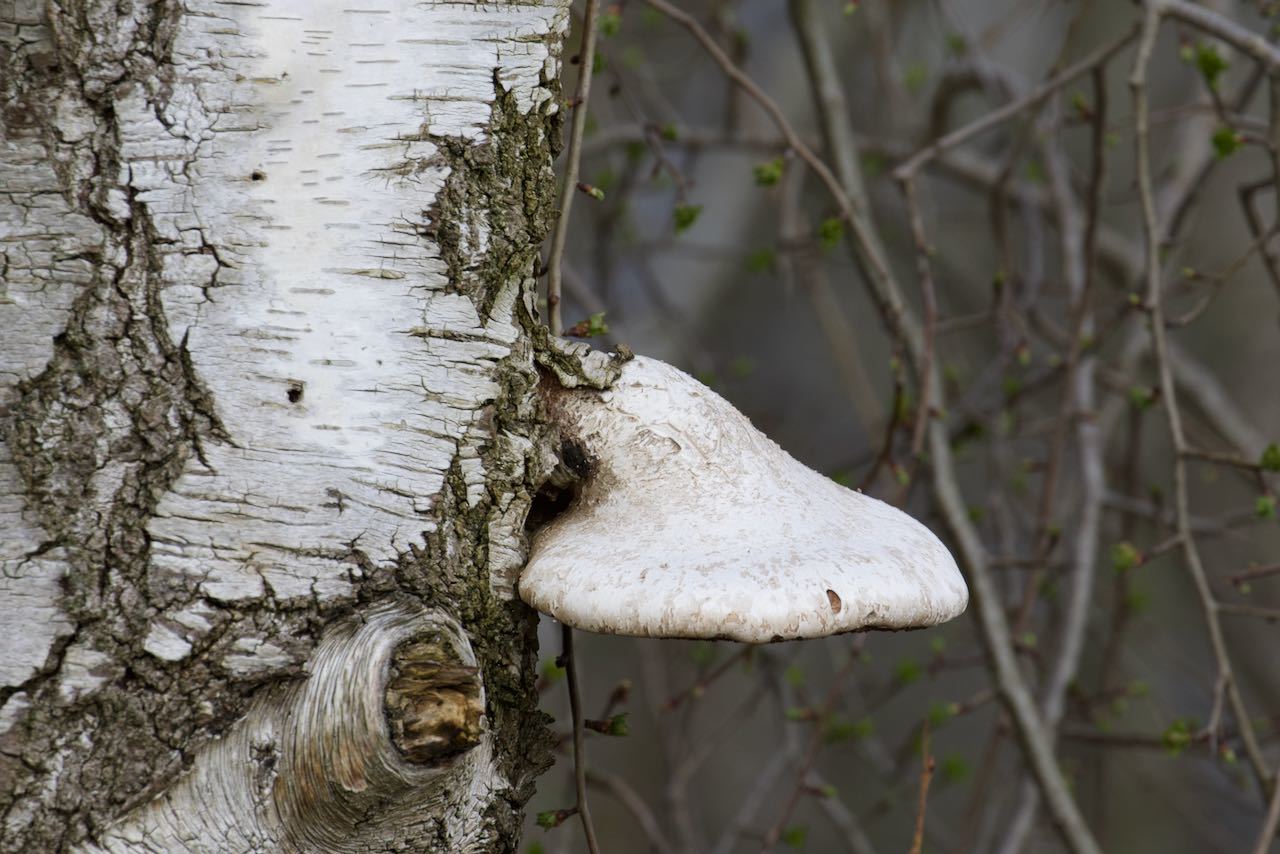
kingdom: Fungi
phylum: Basidiomycota
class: Agaricomycetes
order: Polyporales
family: Fomitopsidaceae
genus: Fomitopsis
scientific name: Fomitopsis betulina
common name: Birch polypore
